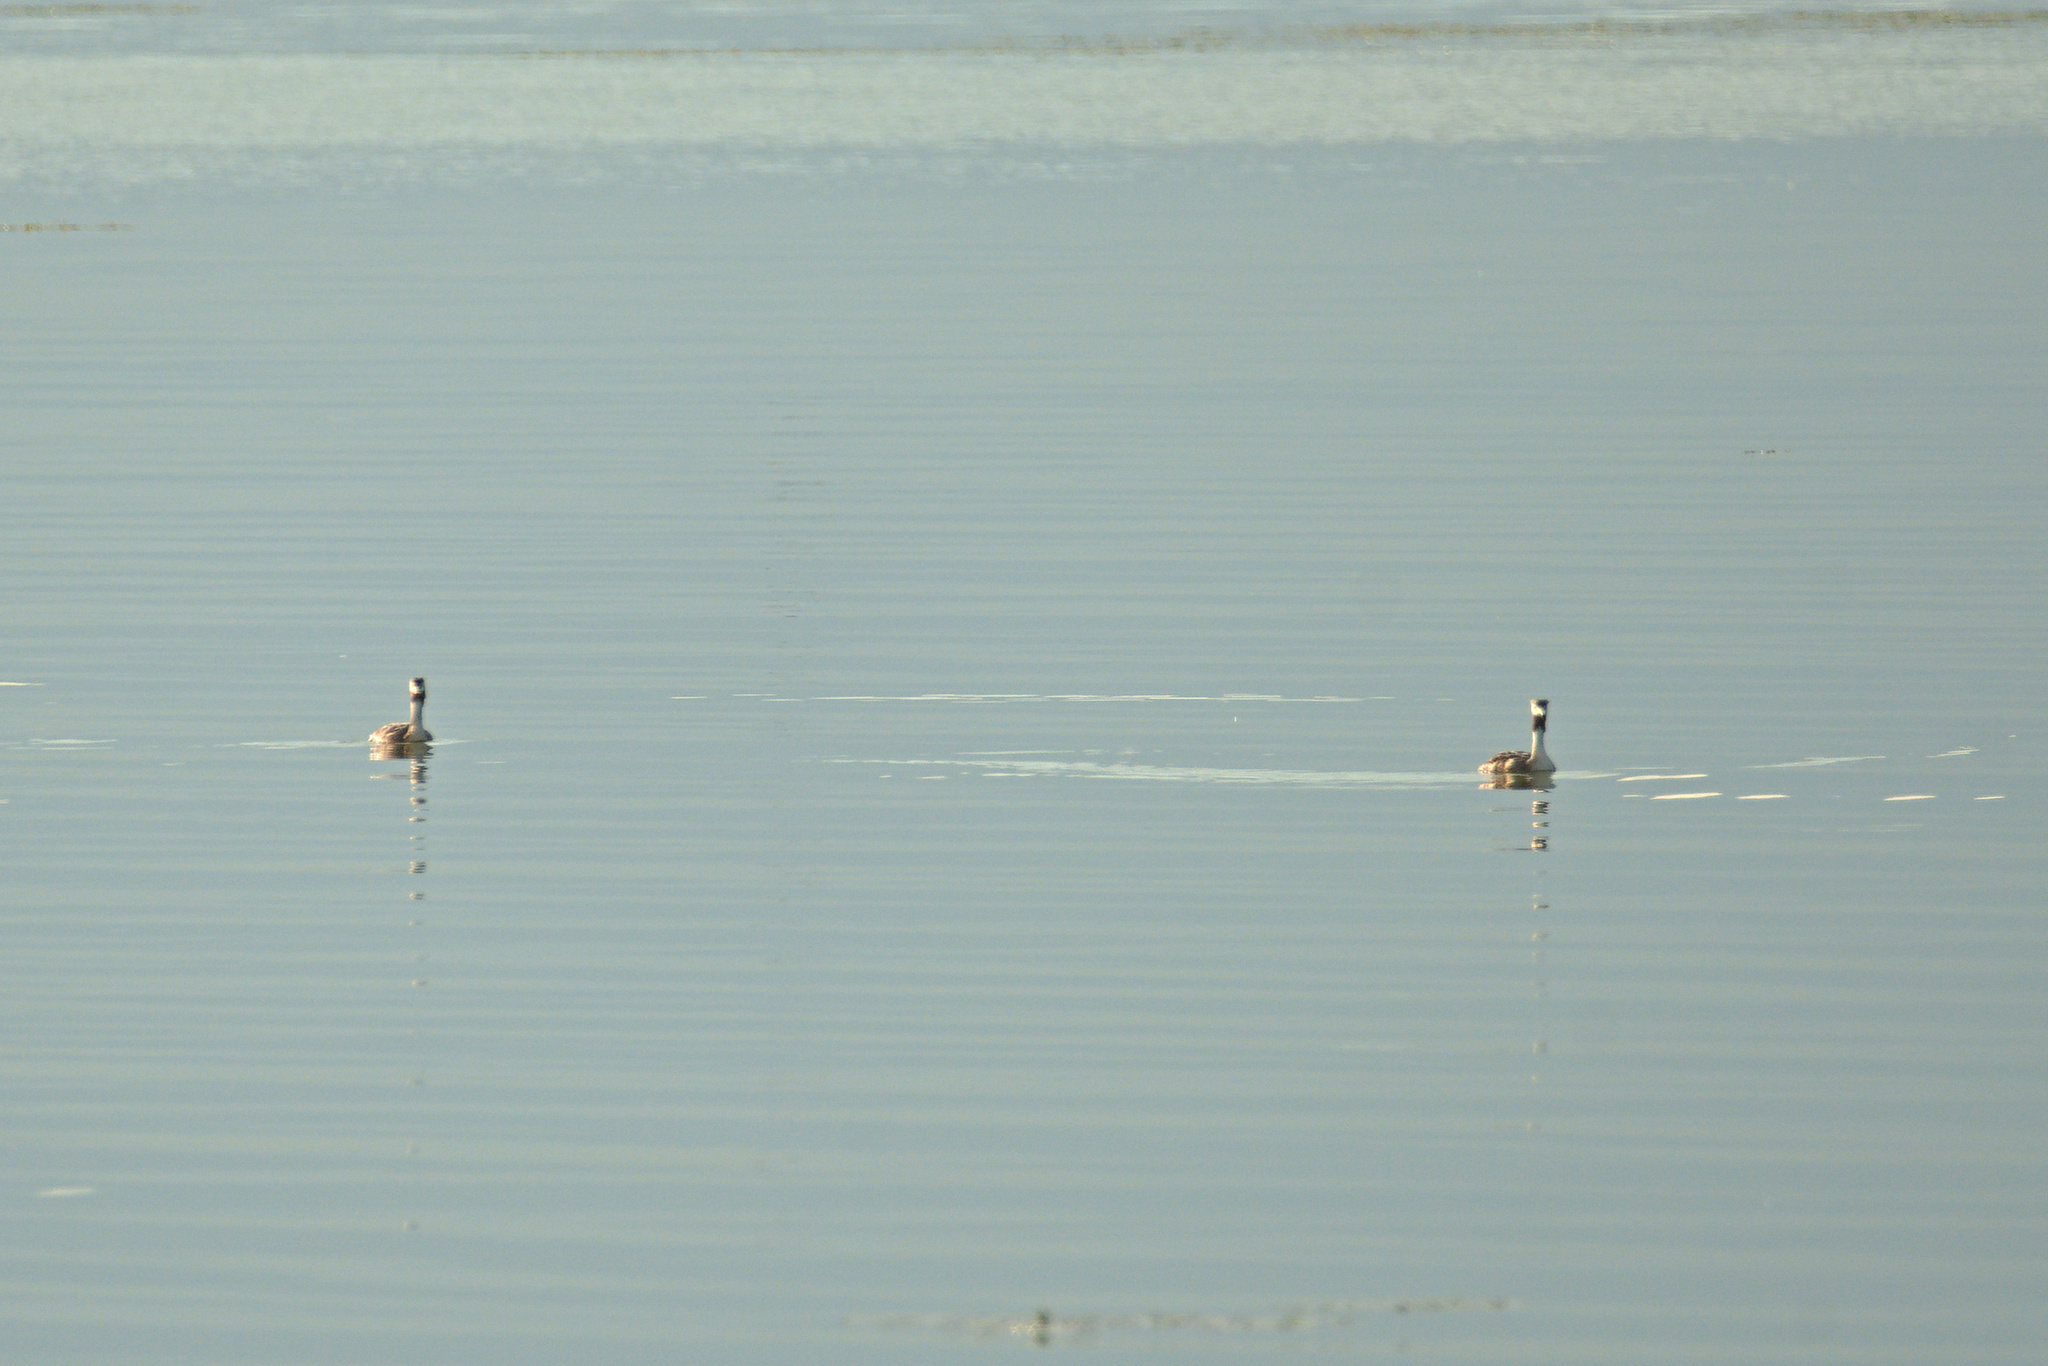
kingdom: Animalia
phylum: Chordata
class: Aves
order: Podicipediformes
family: Podicipedidae
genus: Podiceps
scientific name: Podiceps cristatus
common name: Great crested grebe
